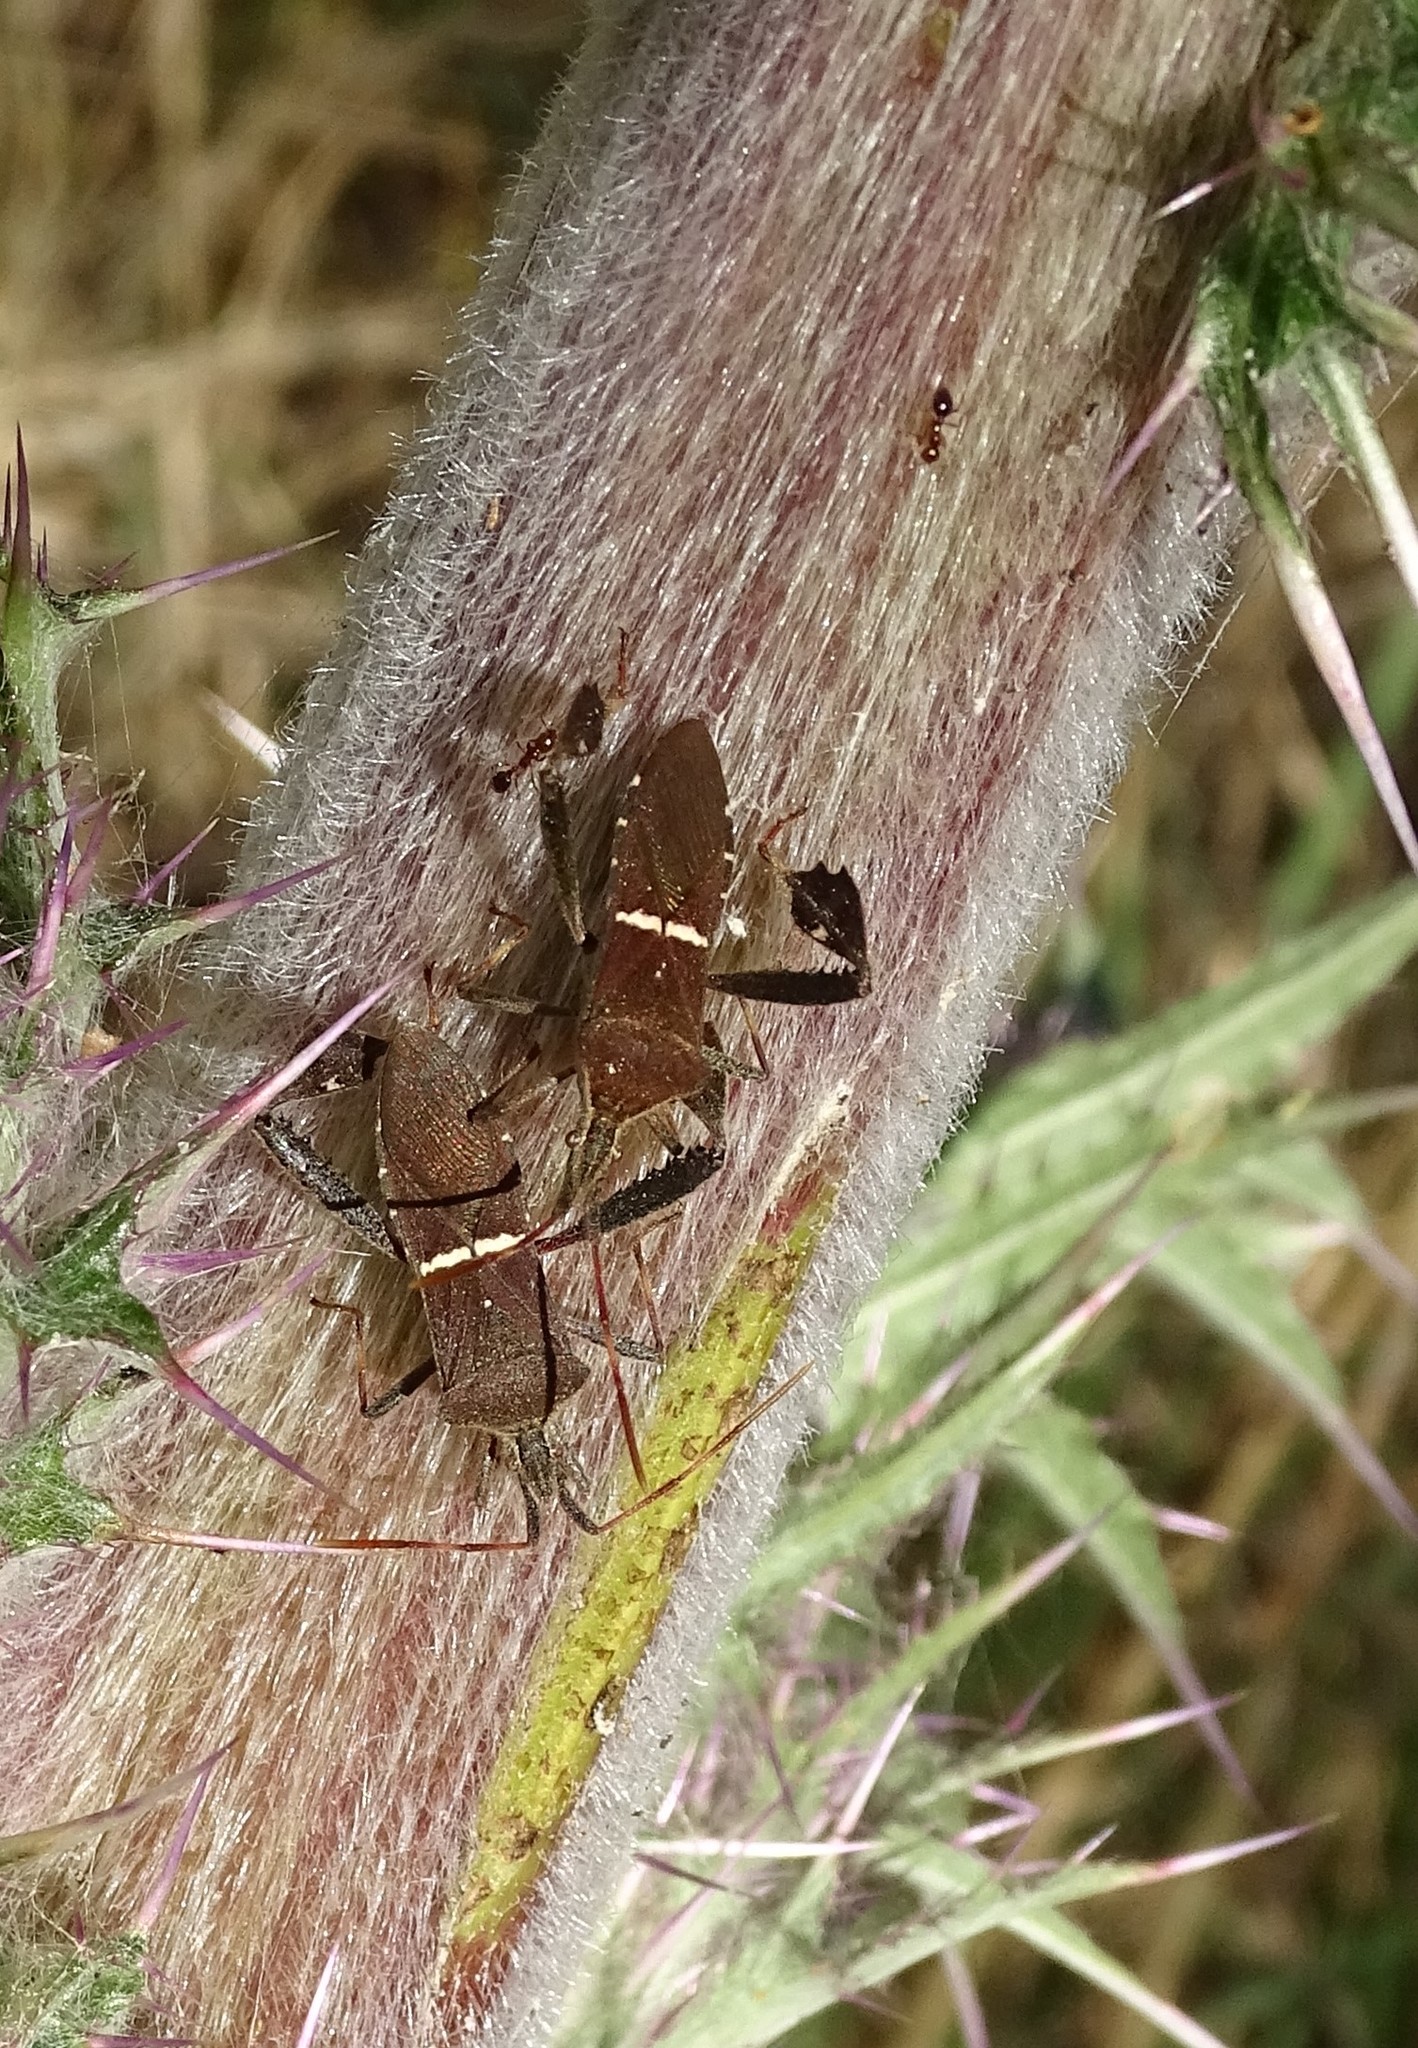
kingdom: Animalia
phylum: Arthropoda
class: Insecta
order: Hemiptera
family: Coreidae
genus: Leptoglossus
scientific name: Leptoglossus phyllopus
